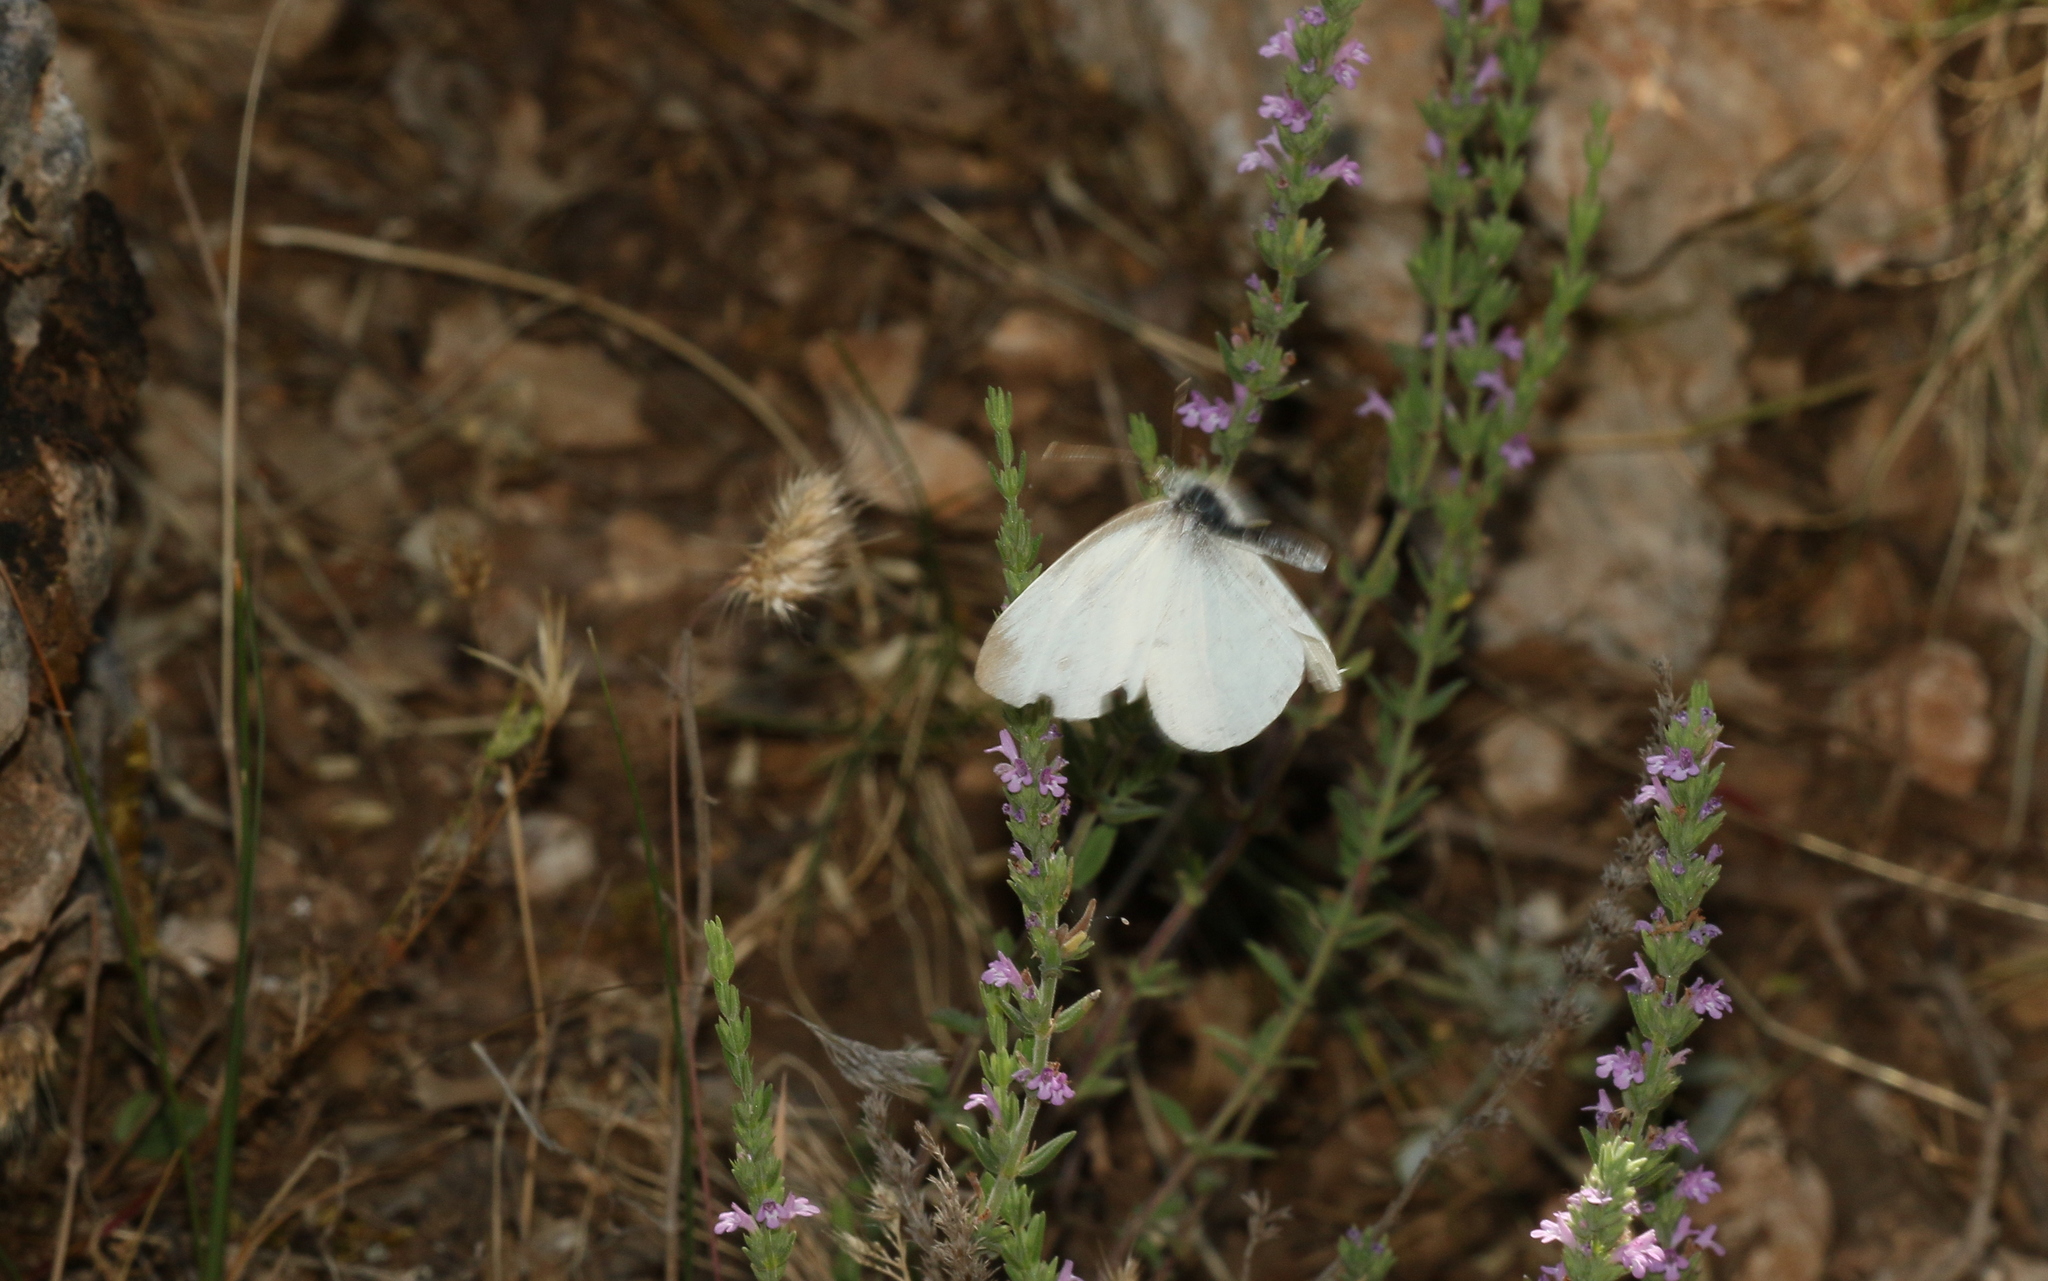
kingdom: Animalia
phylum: Arthropoda
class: Insecta
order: Lepidoptera
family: Pieridae
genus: Pieris
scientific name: Pieris ergane
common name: Mountain small white
